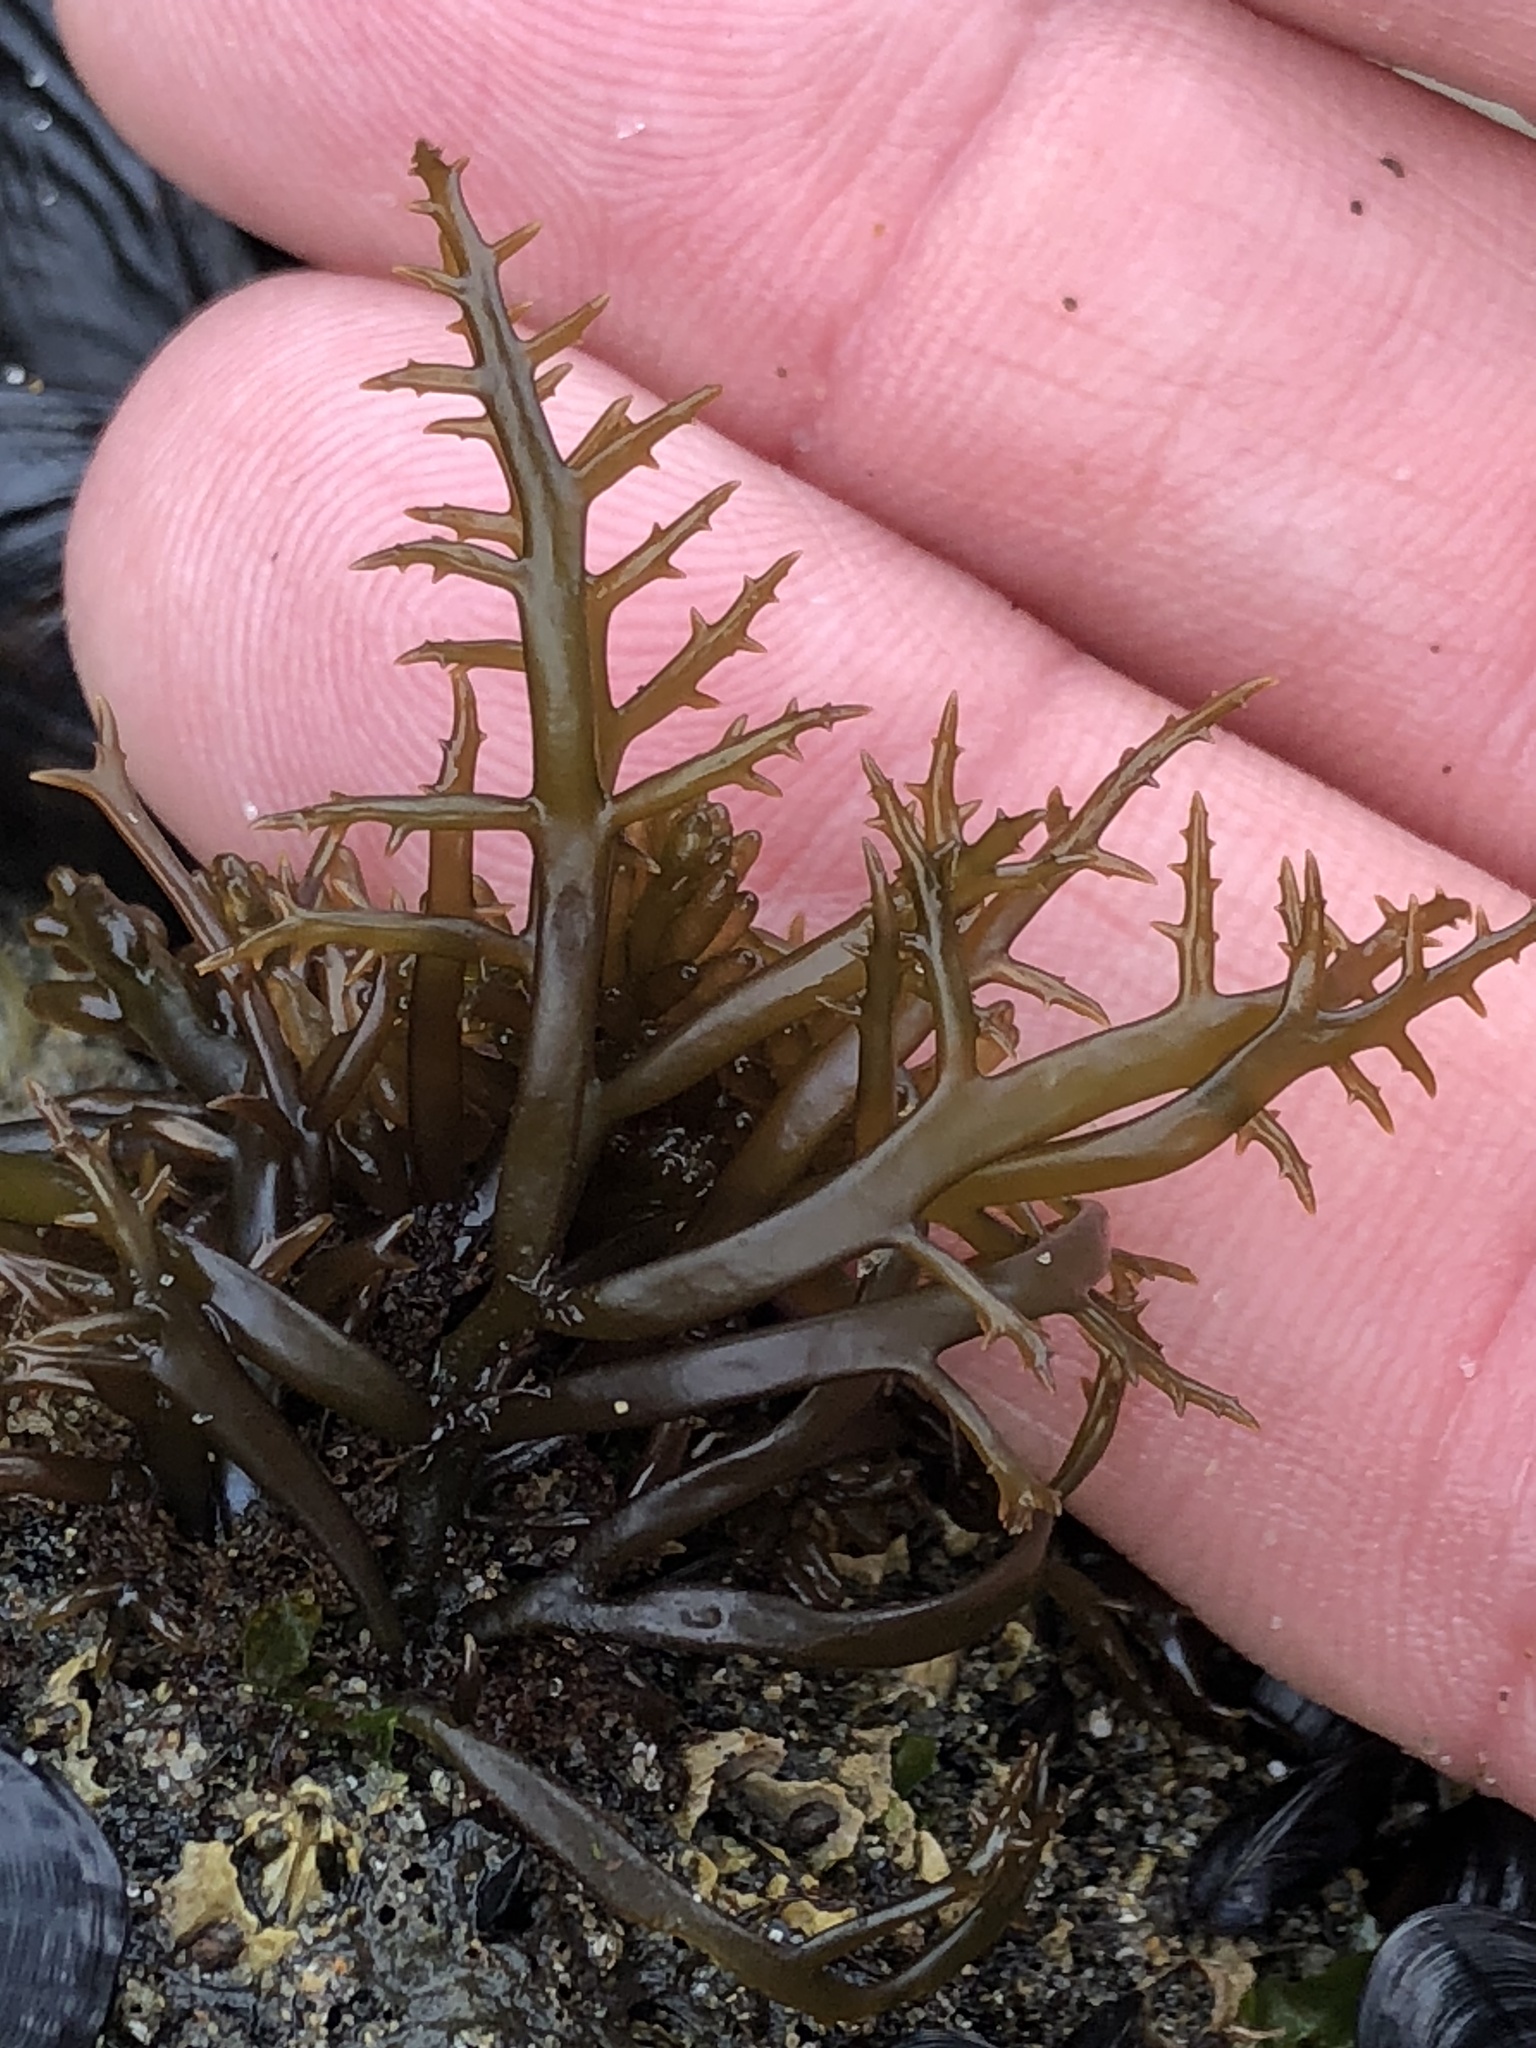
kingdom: Plantae
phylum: Rhodophyta
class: Florideophyceae
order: Gigartinales
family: Gigartinaceae
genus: Chondracanthus
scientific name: Chondracanthus canaliculatus
